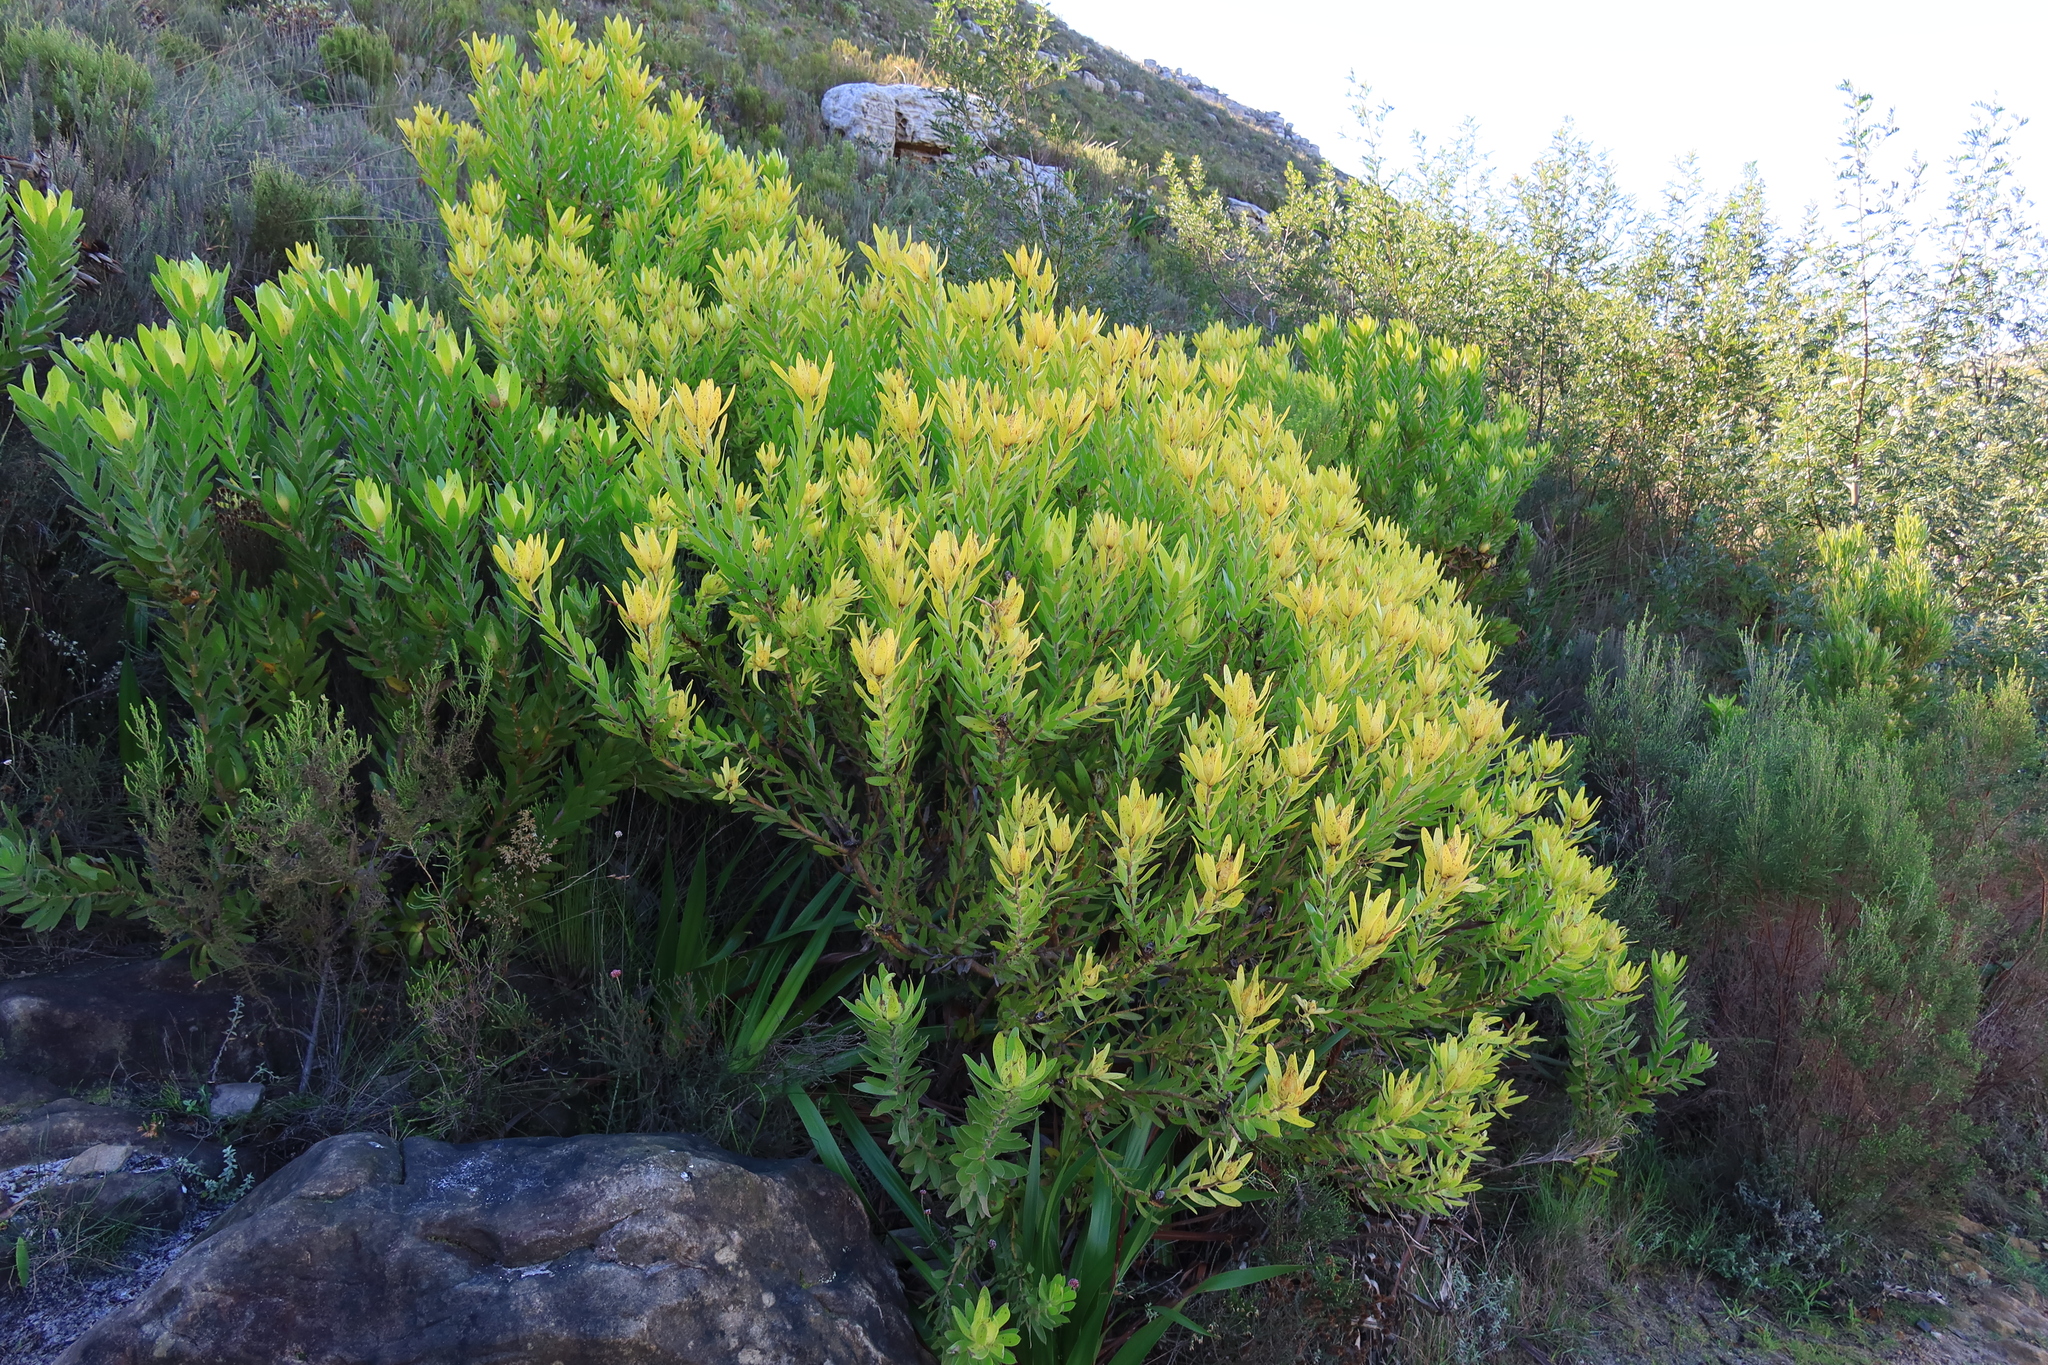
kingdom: Plantae
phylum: Tracheophyta
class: Magnoliopsida
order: Proteales
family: Proteaceae
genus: Leucadendron
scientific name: Leucadendron laureolum
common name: Golden sunshinebush
